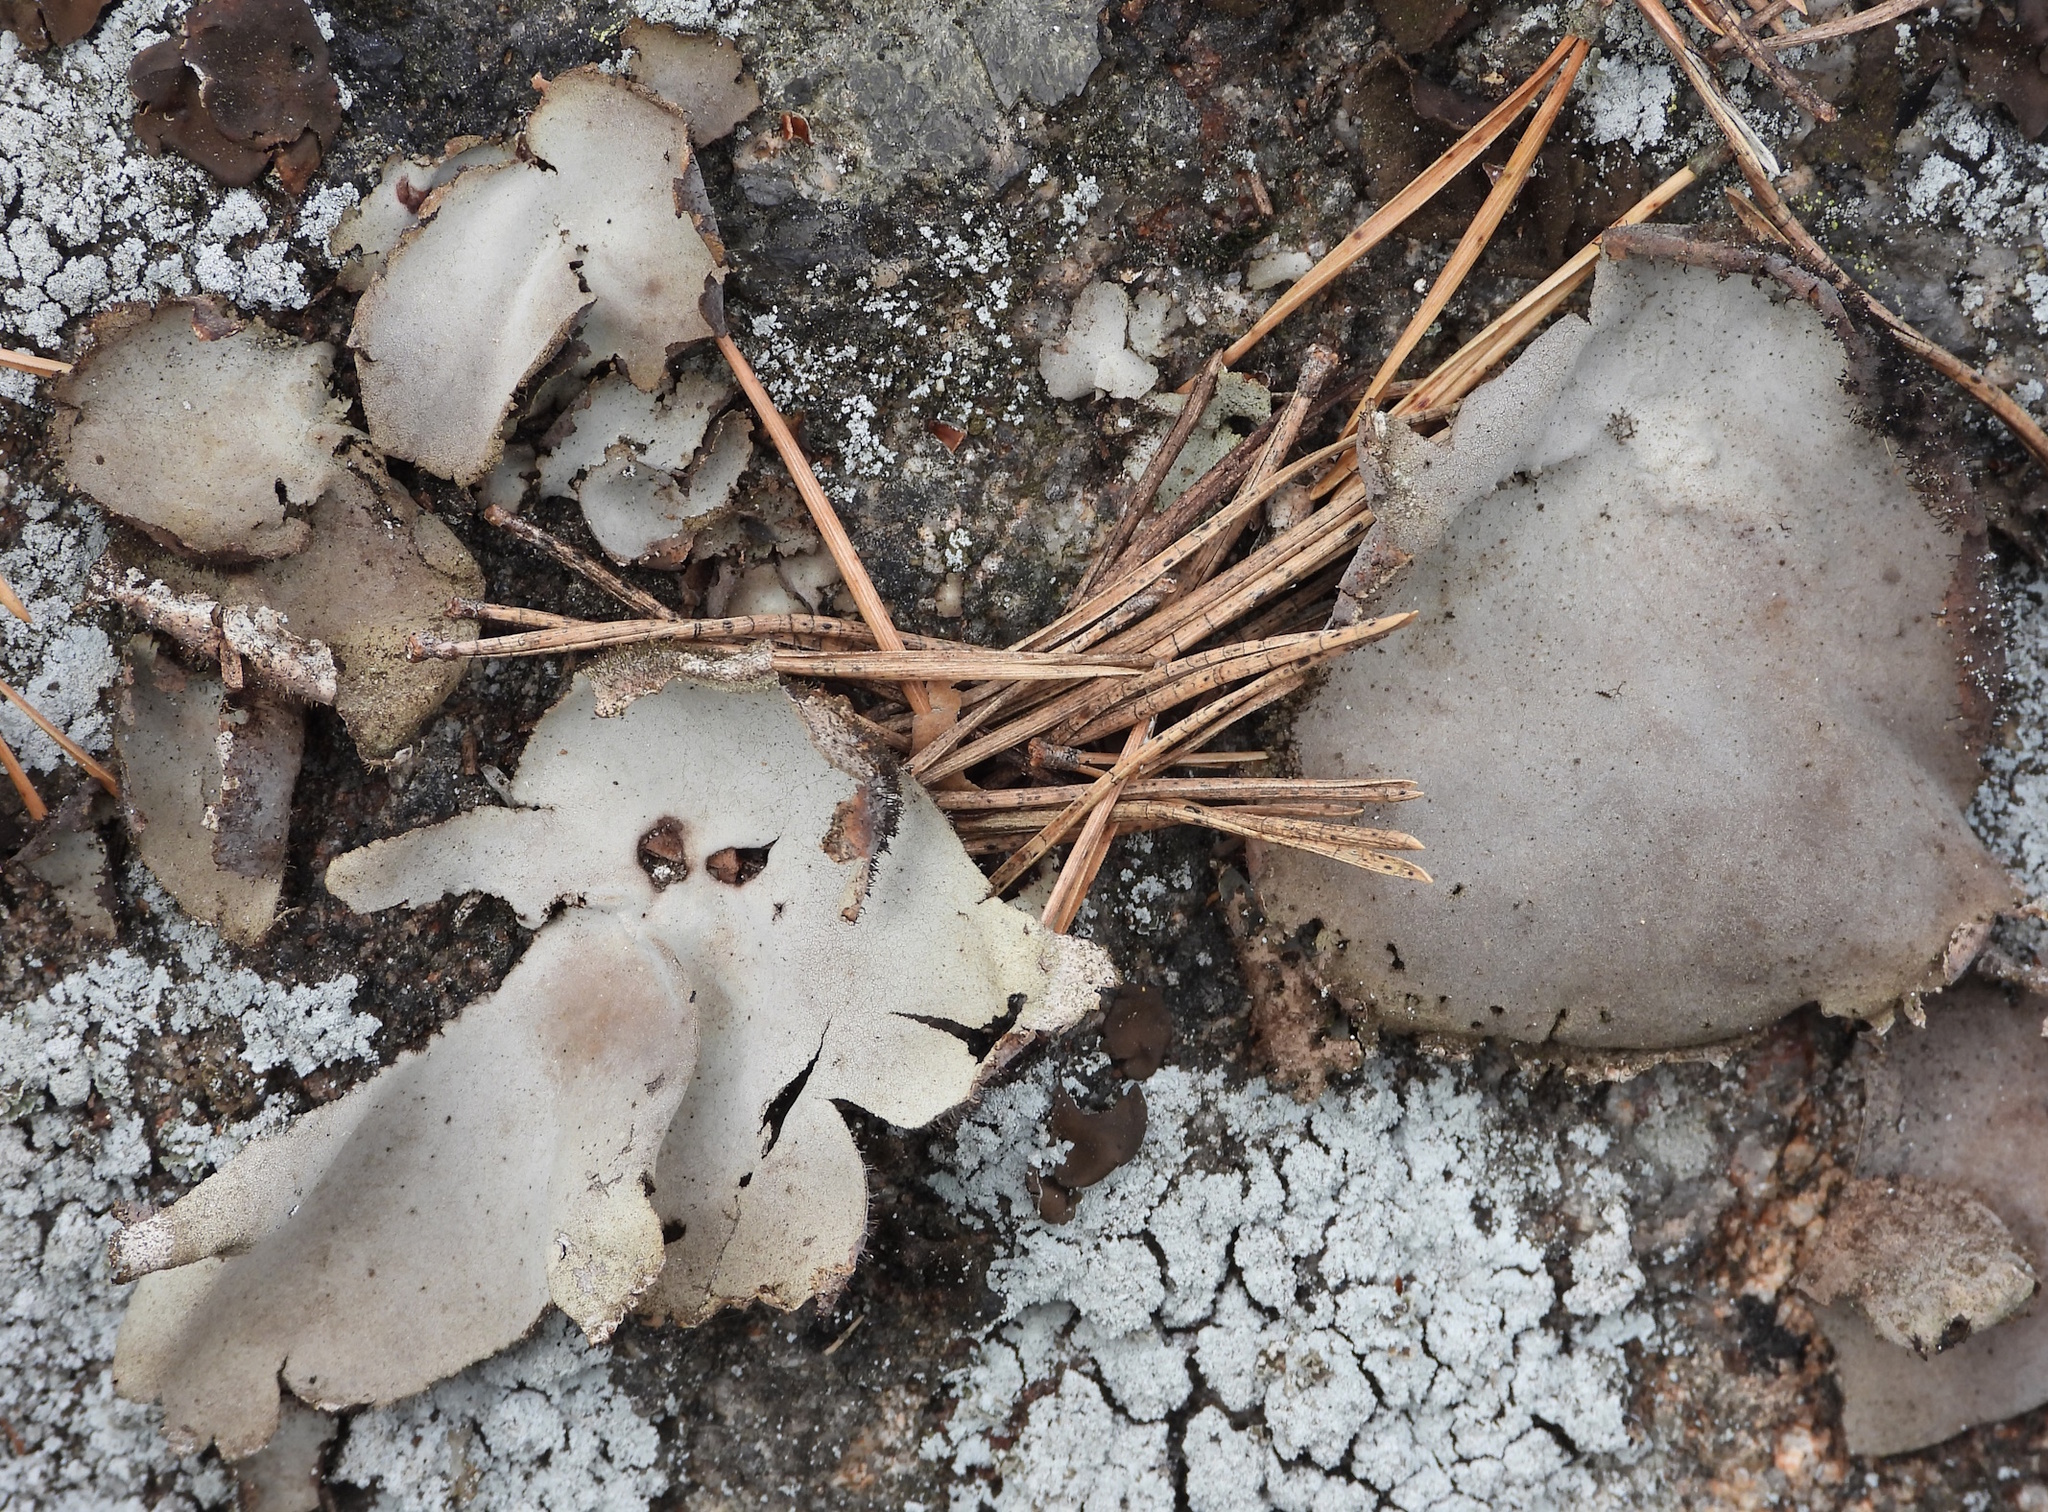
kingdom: Fungi
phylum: Ascomycota
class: Lecanoromycetes
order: Umbilicariales
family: Umbilicariaceae
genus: Umbilicaria
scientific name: Umbilicaria hirsuta
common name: Granulating rocktripe lichen
